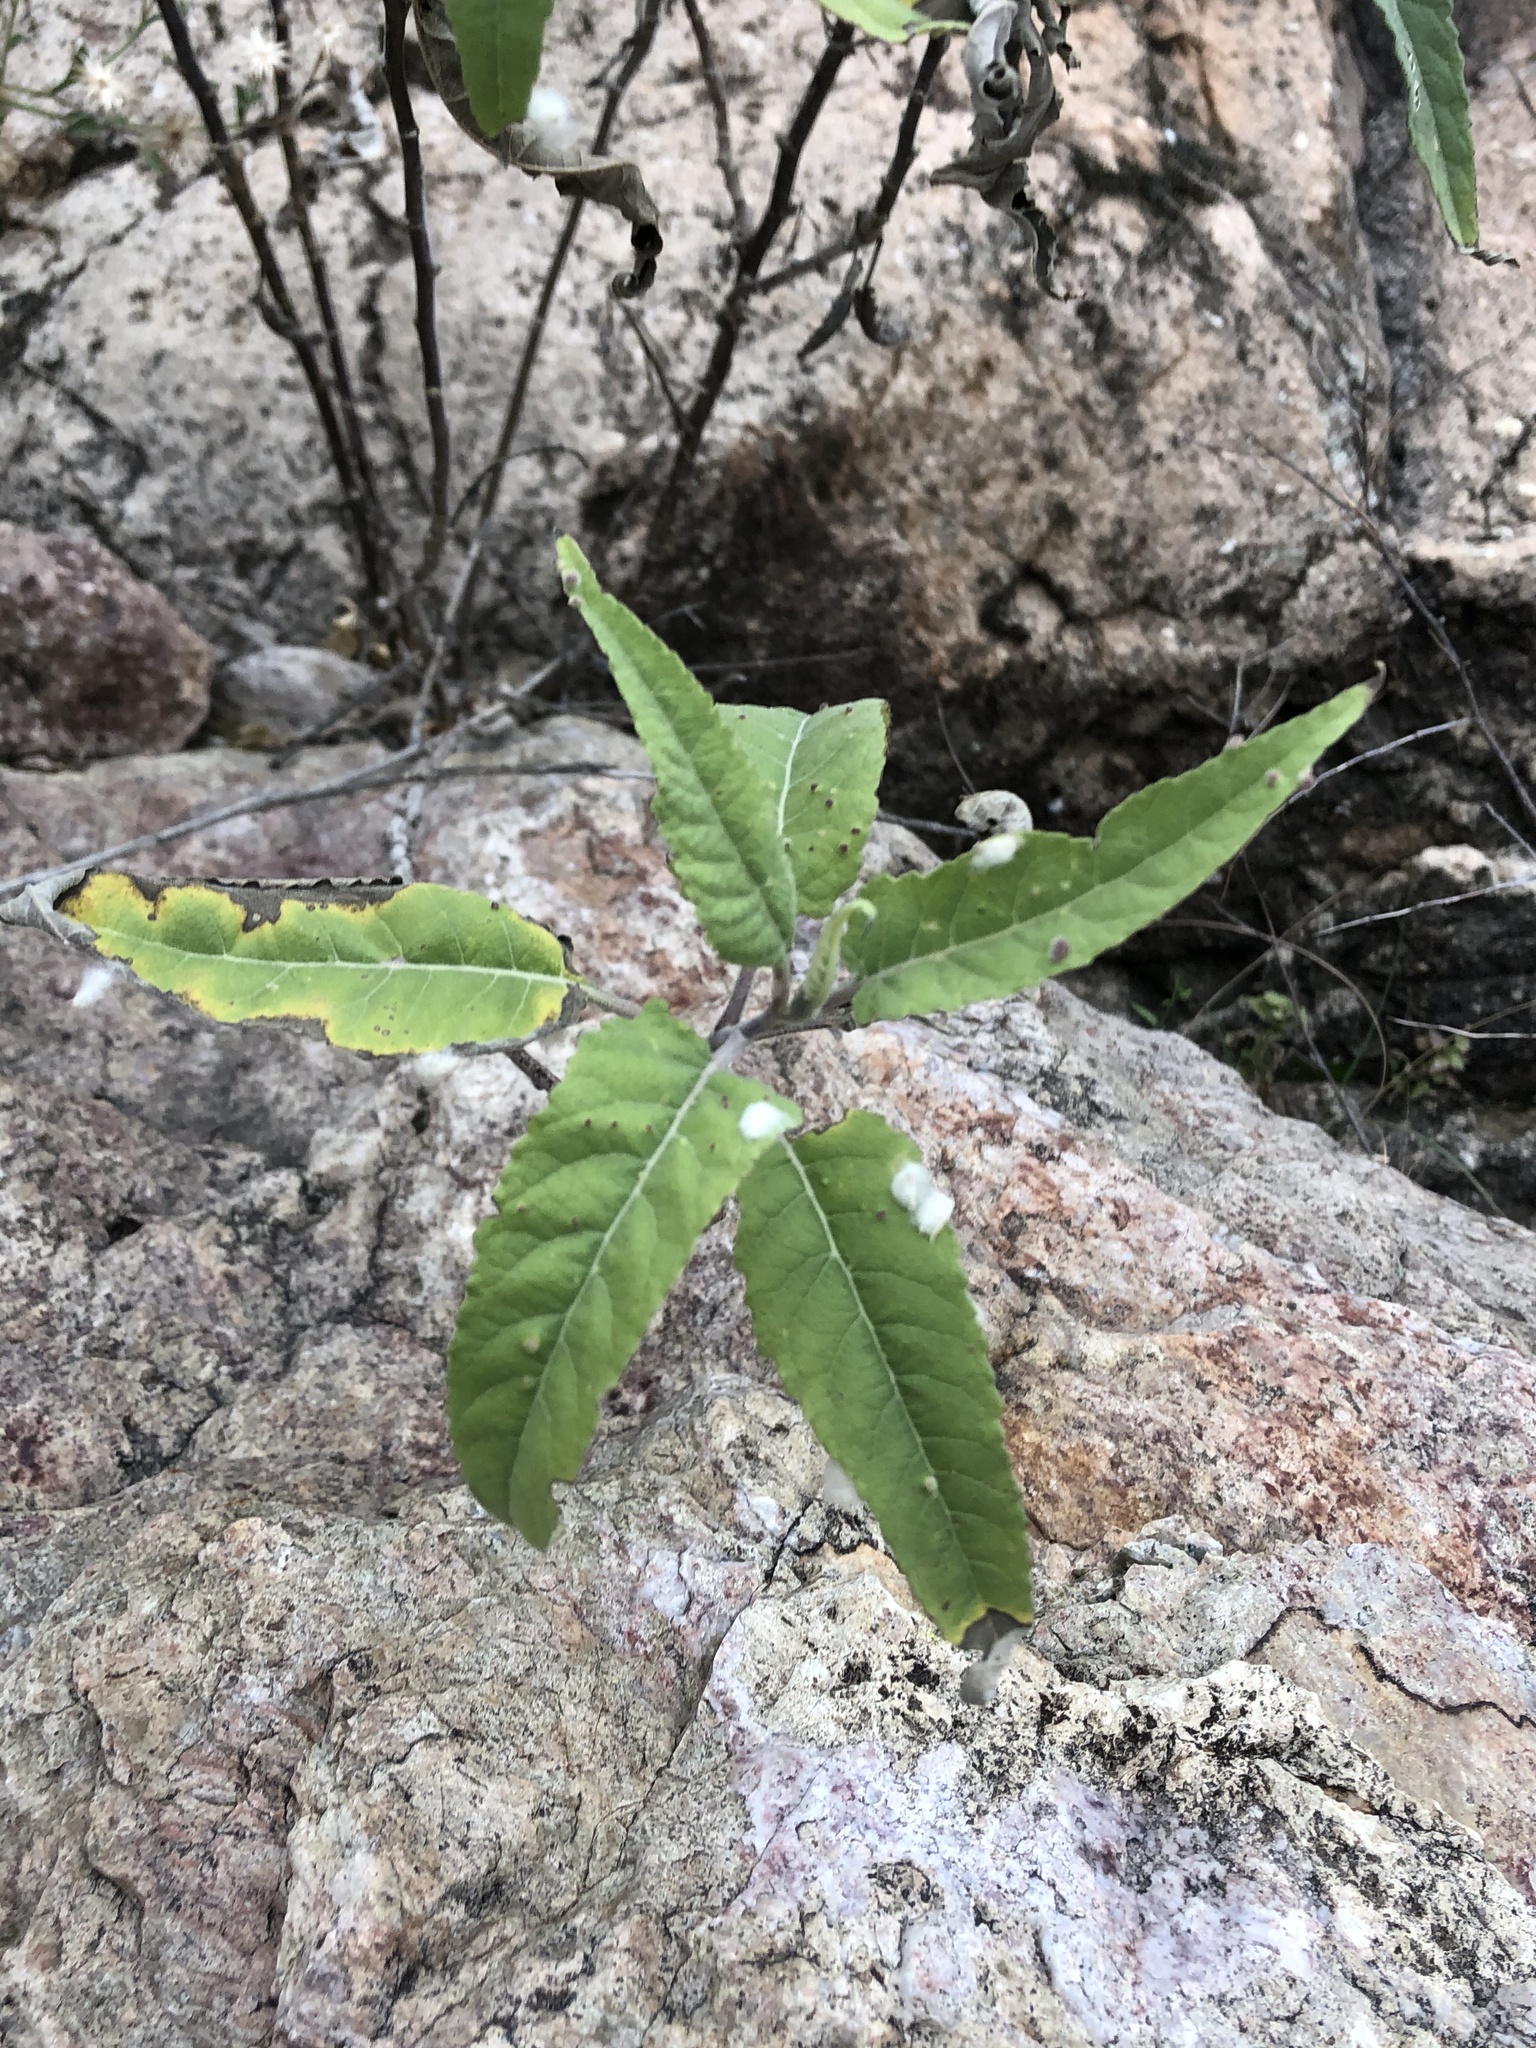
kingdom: Animalia
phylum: Arthropoda
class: Arachnida
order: Trombidiformes
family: Eriophyidae
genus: Aceria
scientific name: Aceria
